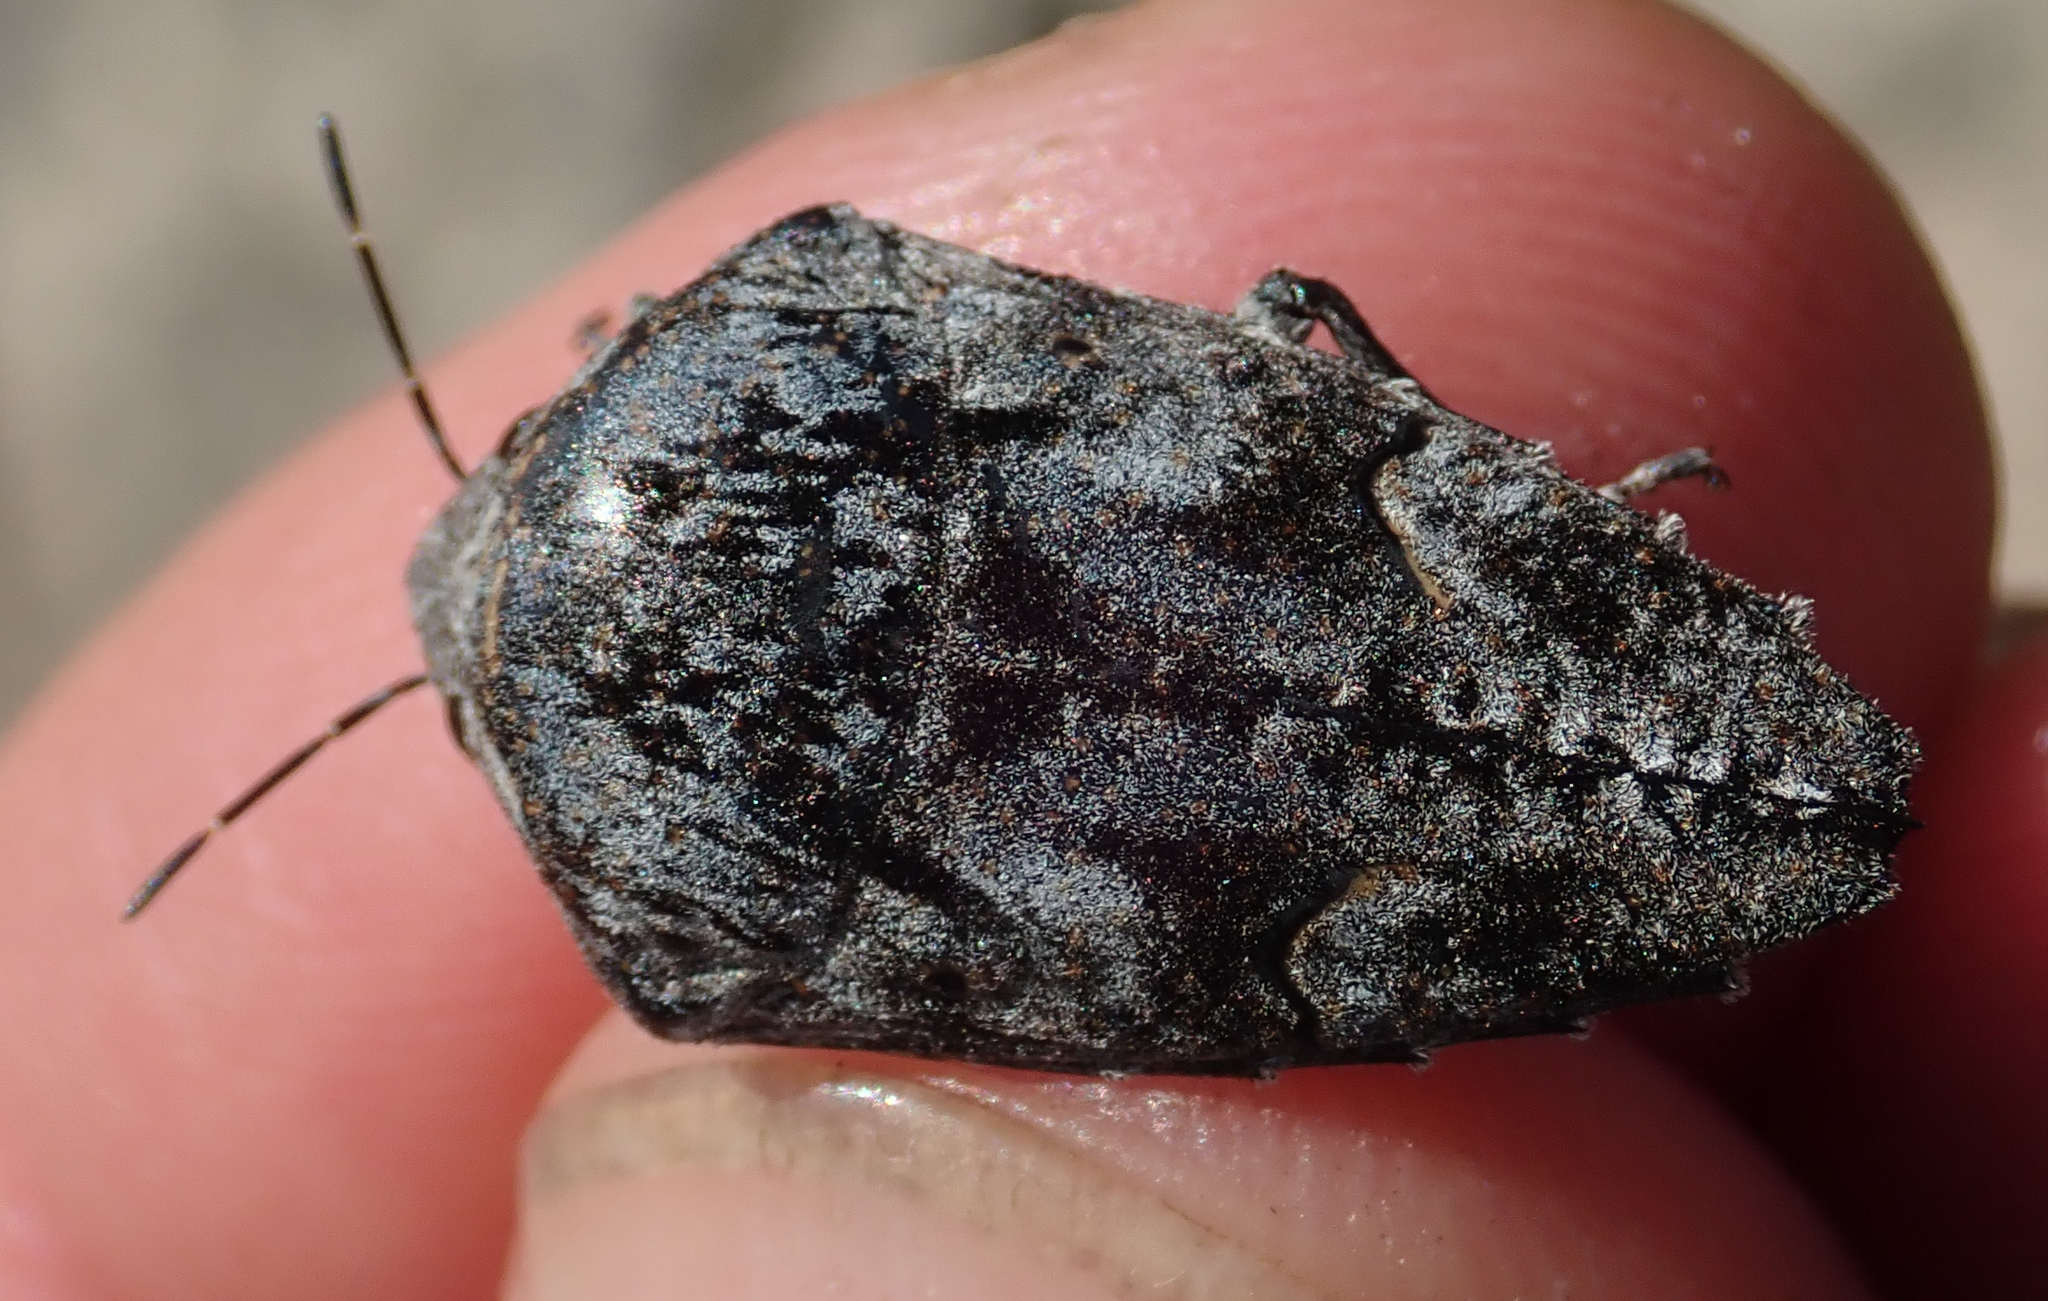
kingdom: Animalia
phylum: Arthropoda
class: Insecta
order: Hemiptera
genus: Elvisura
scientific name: Elvisura irrorata
